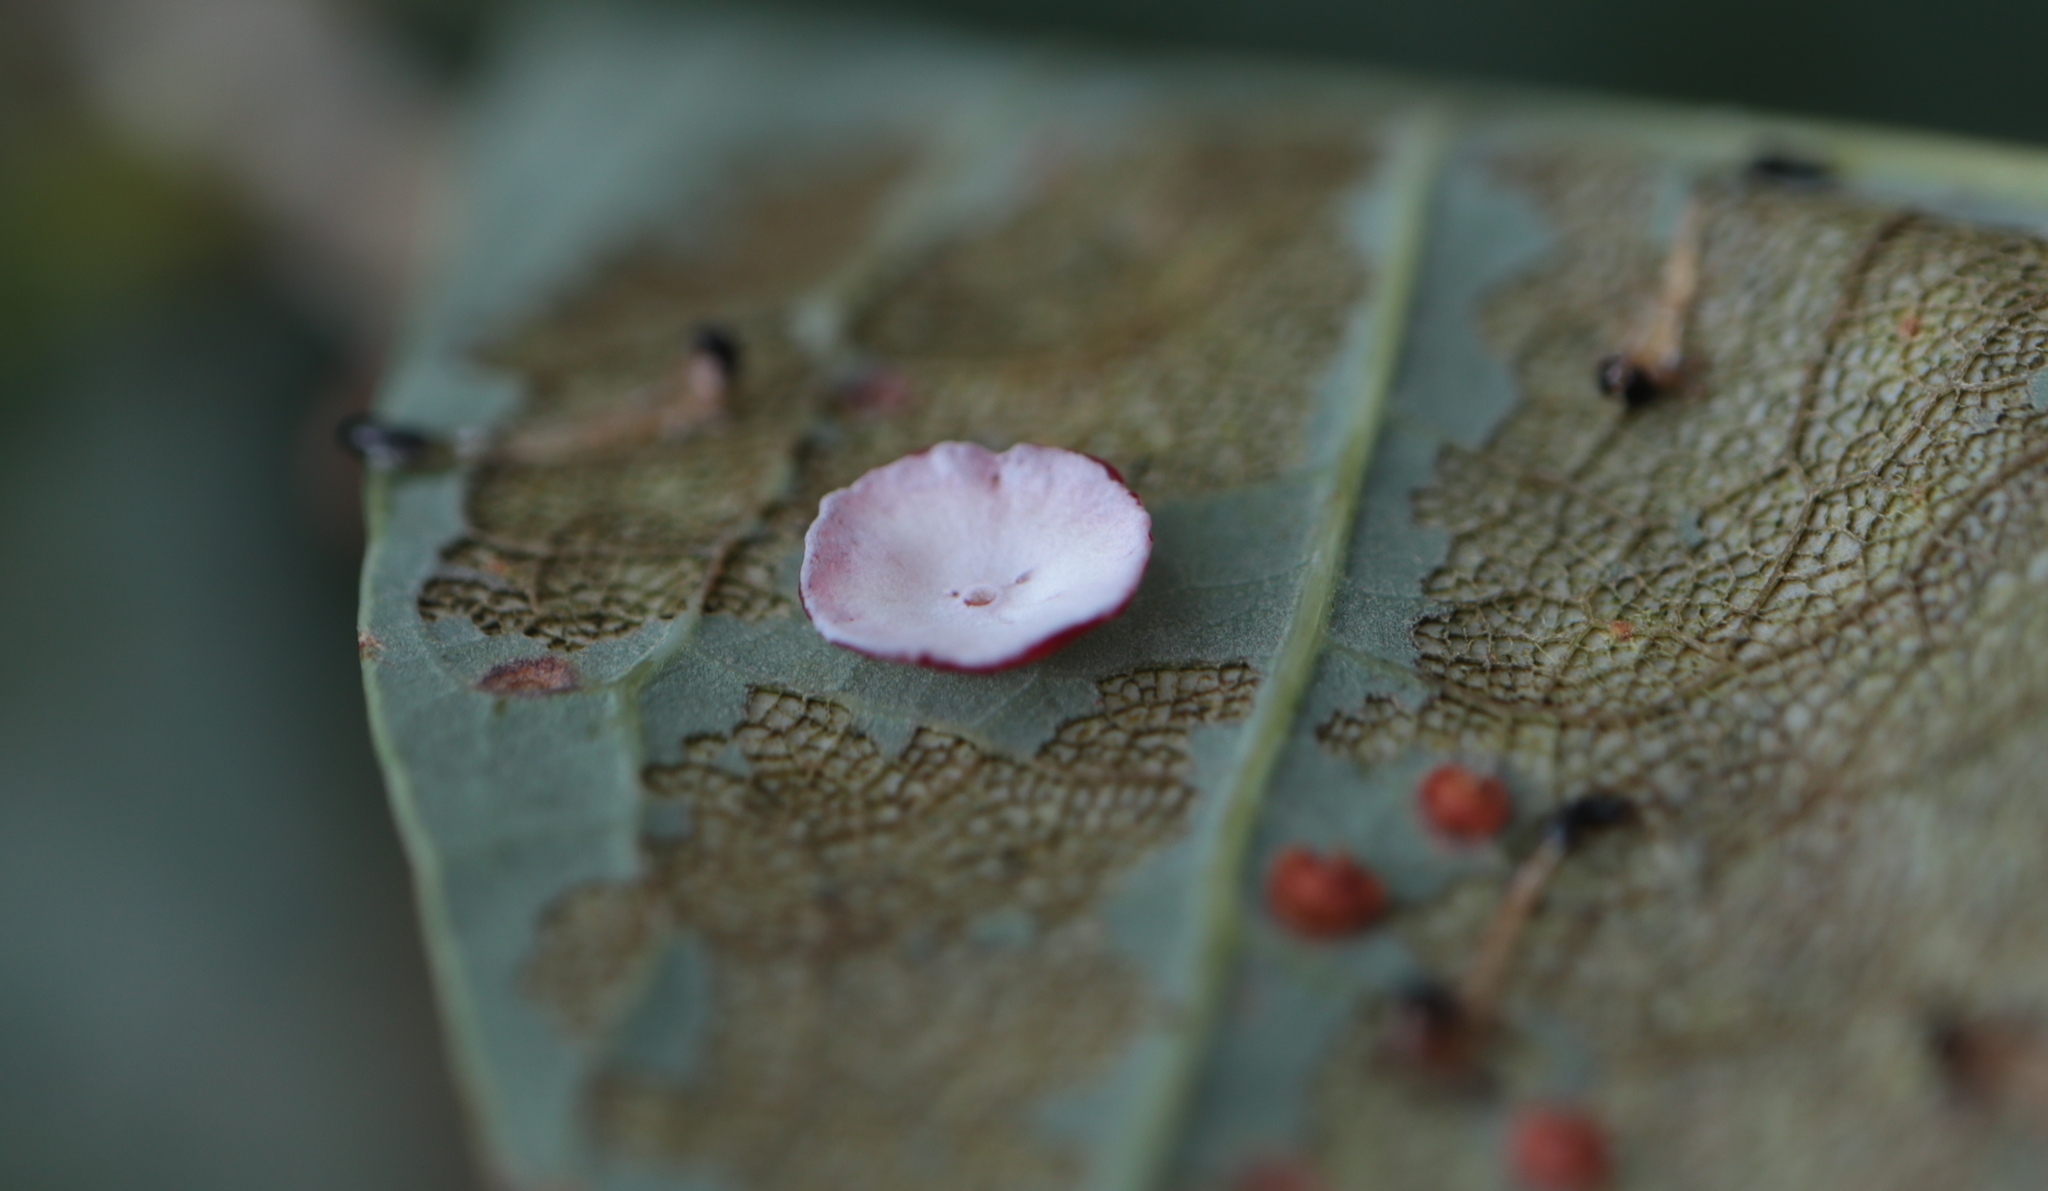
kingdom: Animalia
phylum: Arthropoda
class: Insecta
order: Hymenoptera
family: Cynipidae
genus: Phylloteras
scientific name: Phylloteras poculum
